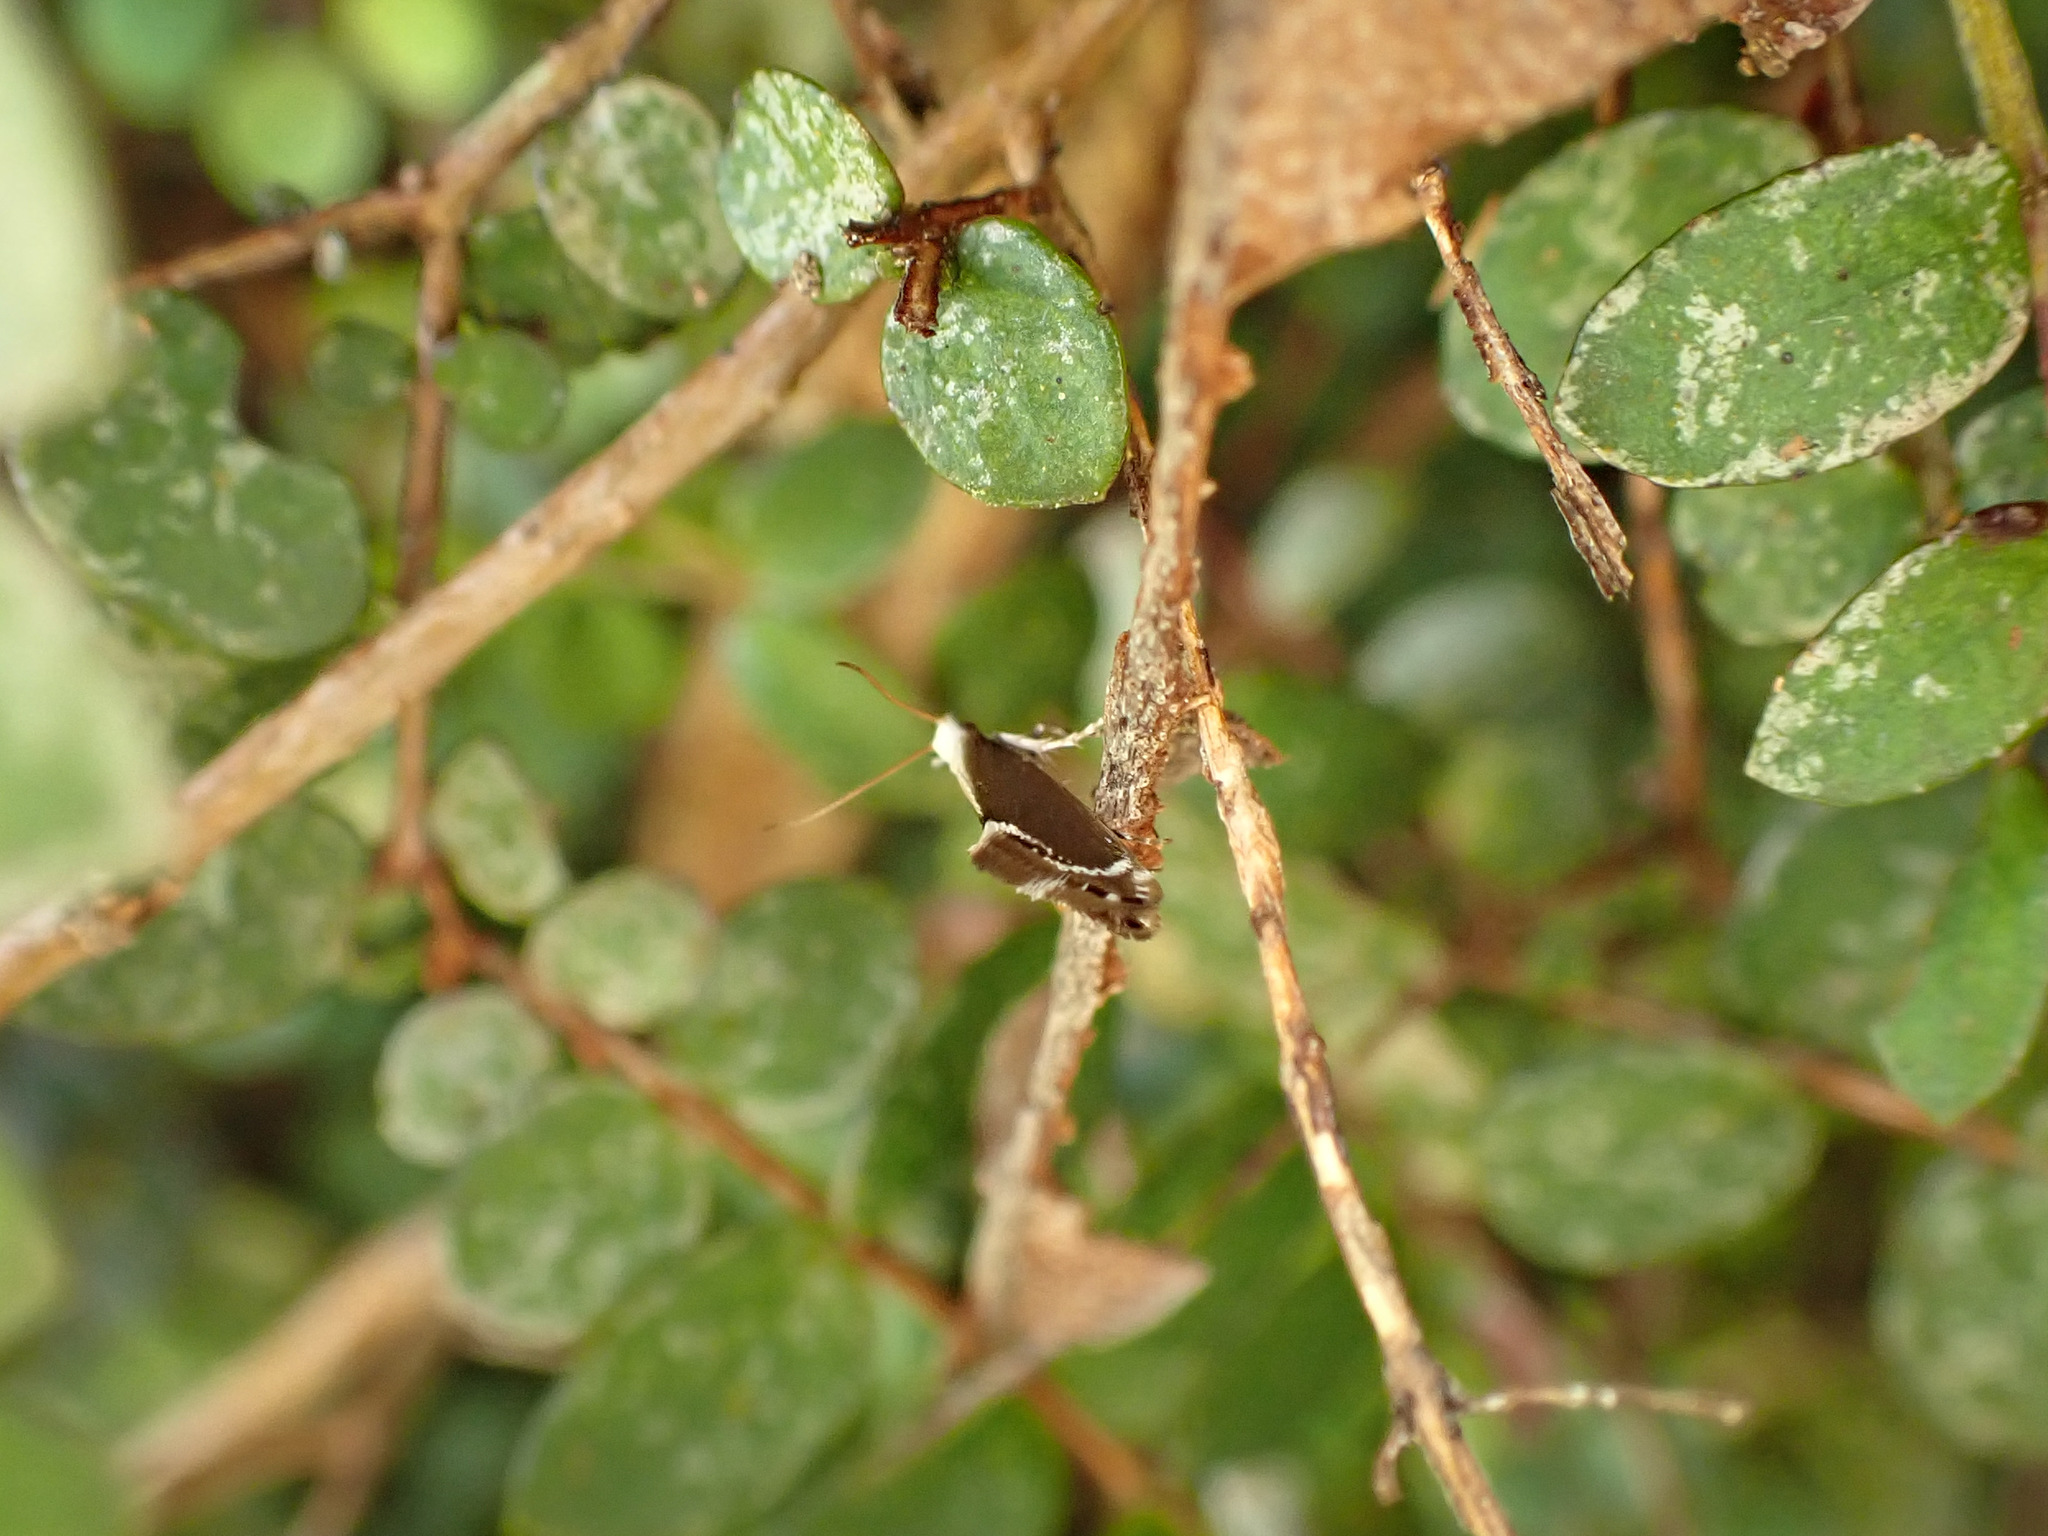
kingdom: Animalia
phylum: Arthropoda
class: Insecta
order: Lepidoptera
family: Mnesarchaeidae
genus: Mnesarchella
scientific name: Mnesarchella dugdalei
